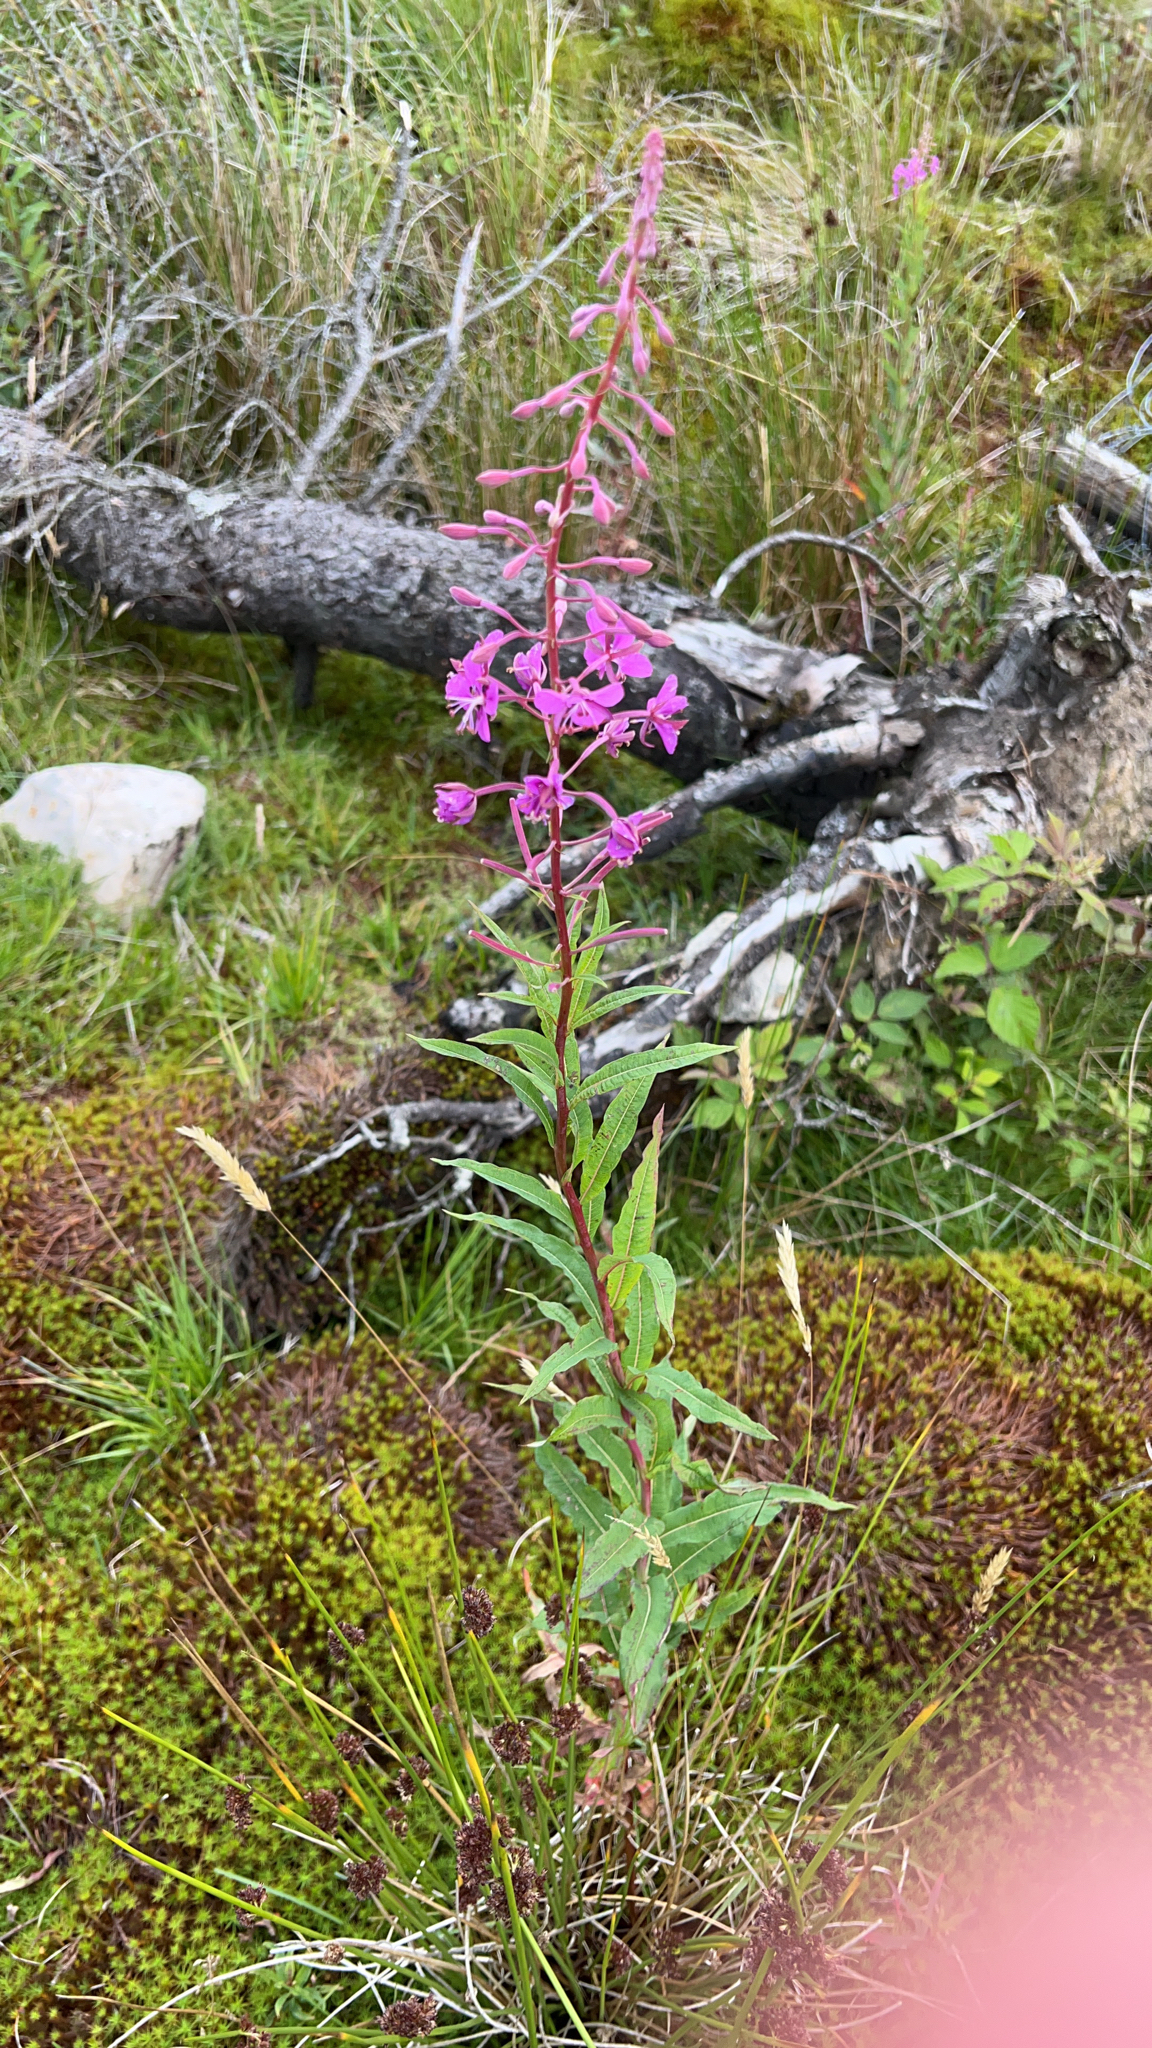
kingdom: Plantae
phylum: Tracheophyta
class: Magnoliopsida
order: Myrtales
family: Onagraceae
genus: Chamaenerion
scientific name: Chamaenerion angustifolium
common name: Fireweed
